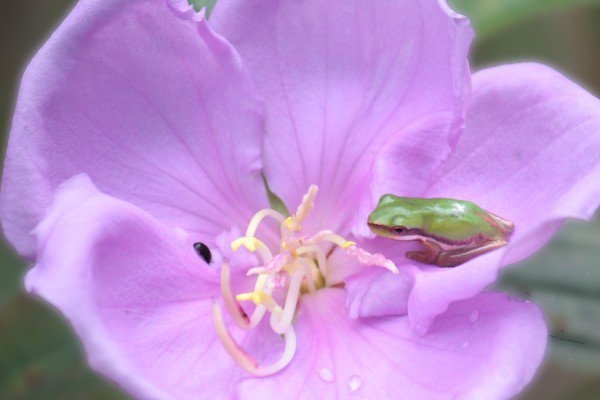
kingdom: Animalia
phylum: Chordata
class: Amphibia
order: Anura
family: Pelodryadidae
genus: Litoria
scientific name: Litoria fallax
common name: Eastern dwarf treefrog
